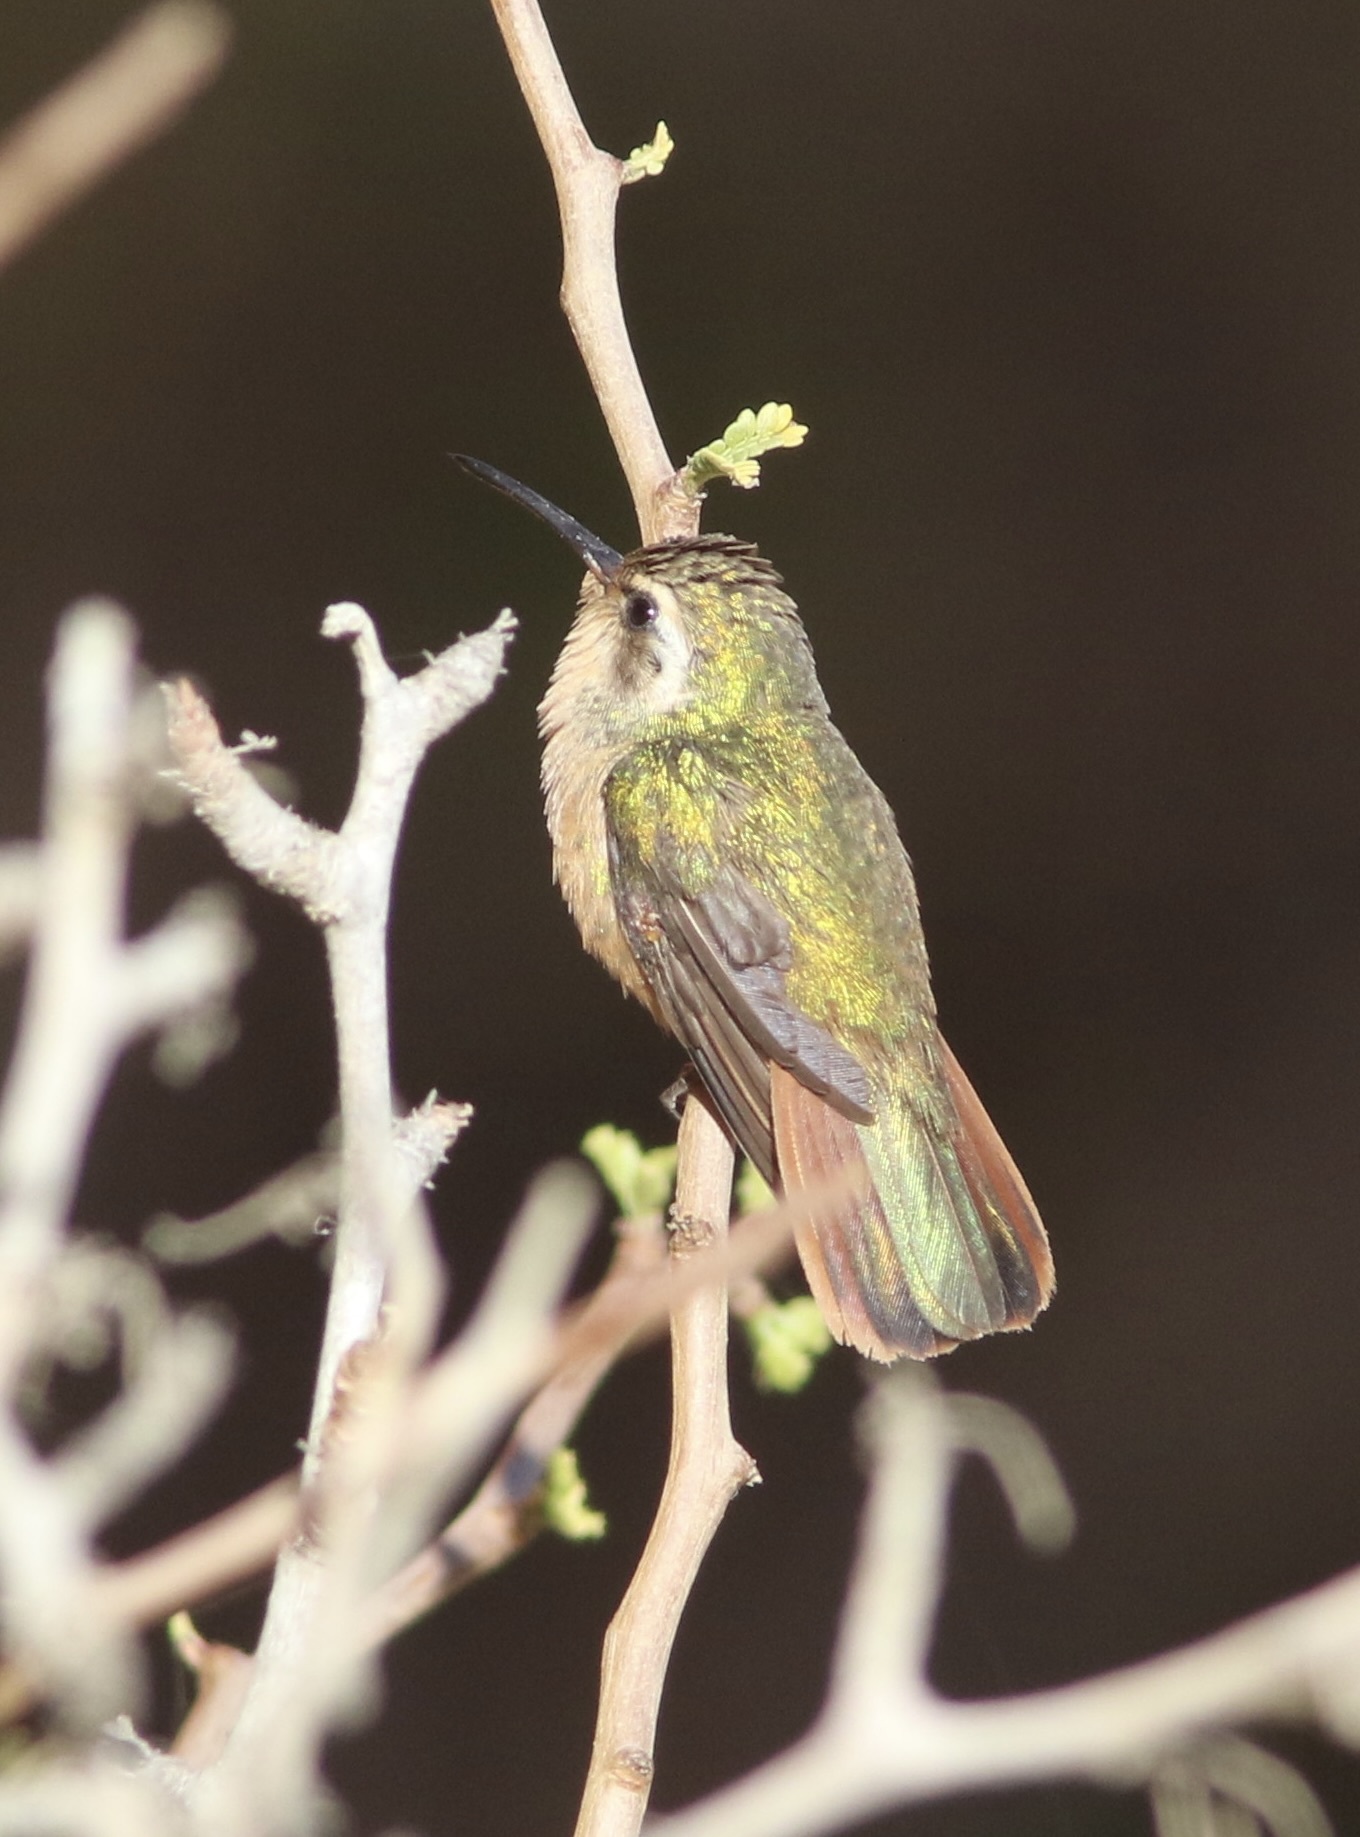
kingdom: Animalia
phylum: Chordata
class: Aves
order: Apodiformes
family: Trochilidae
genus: Basilinna
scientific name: Basilinna xantusii
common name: Xantus's hummingbird
